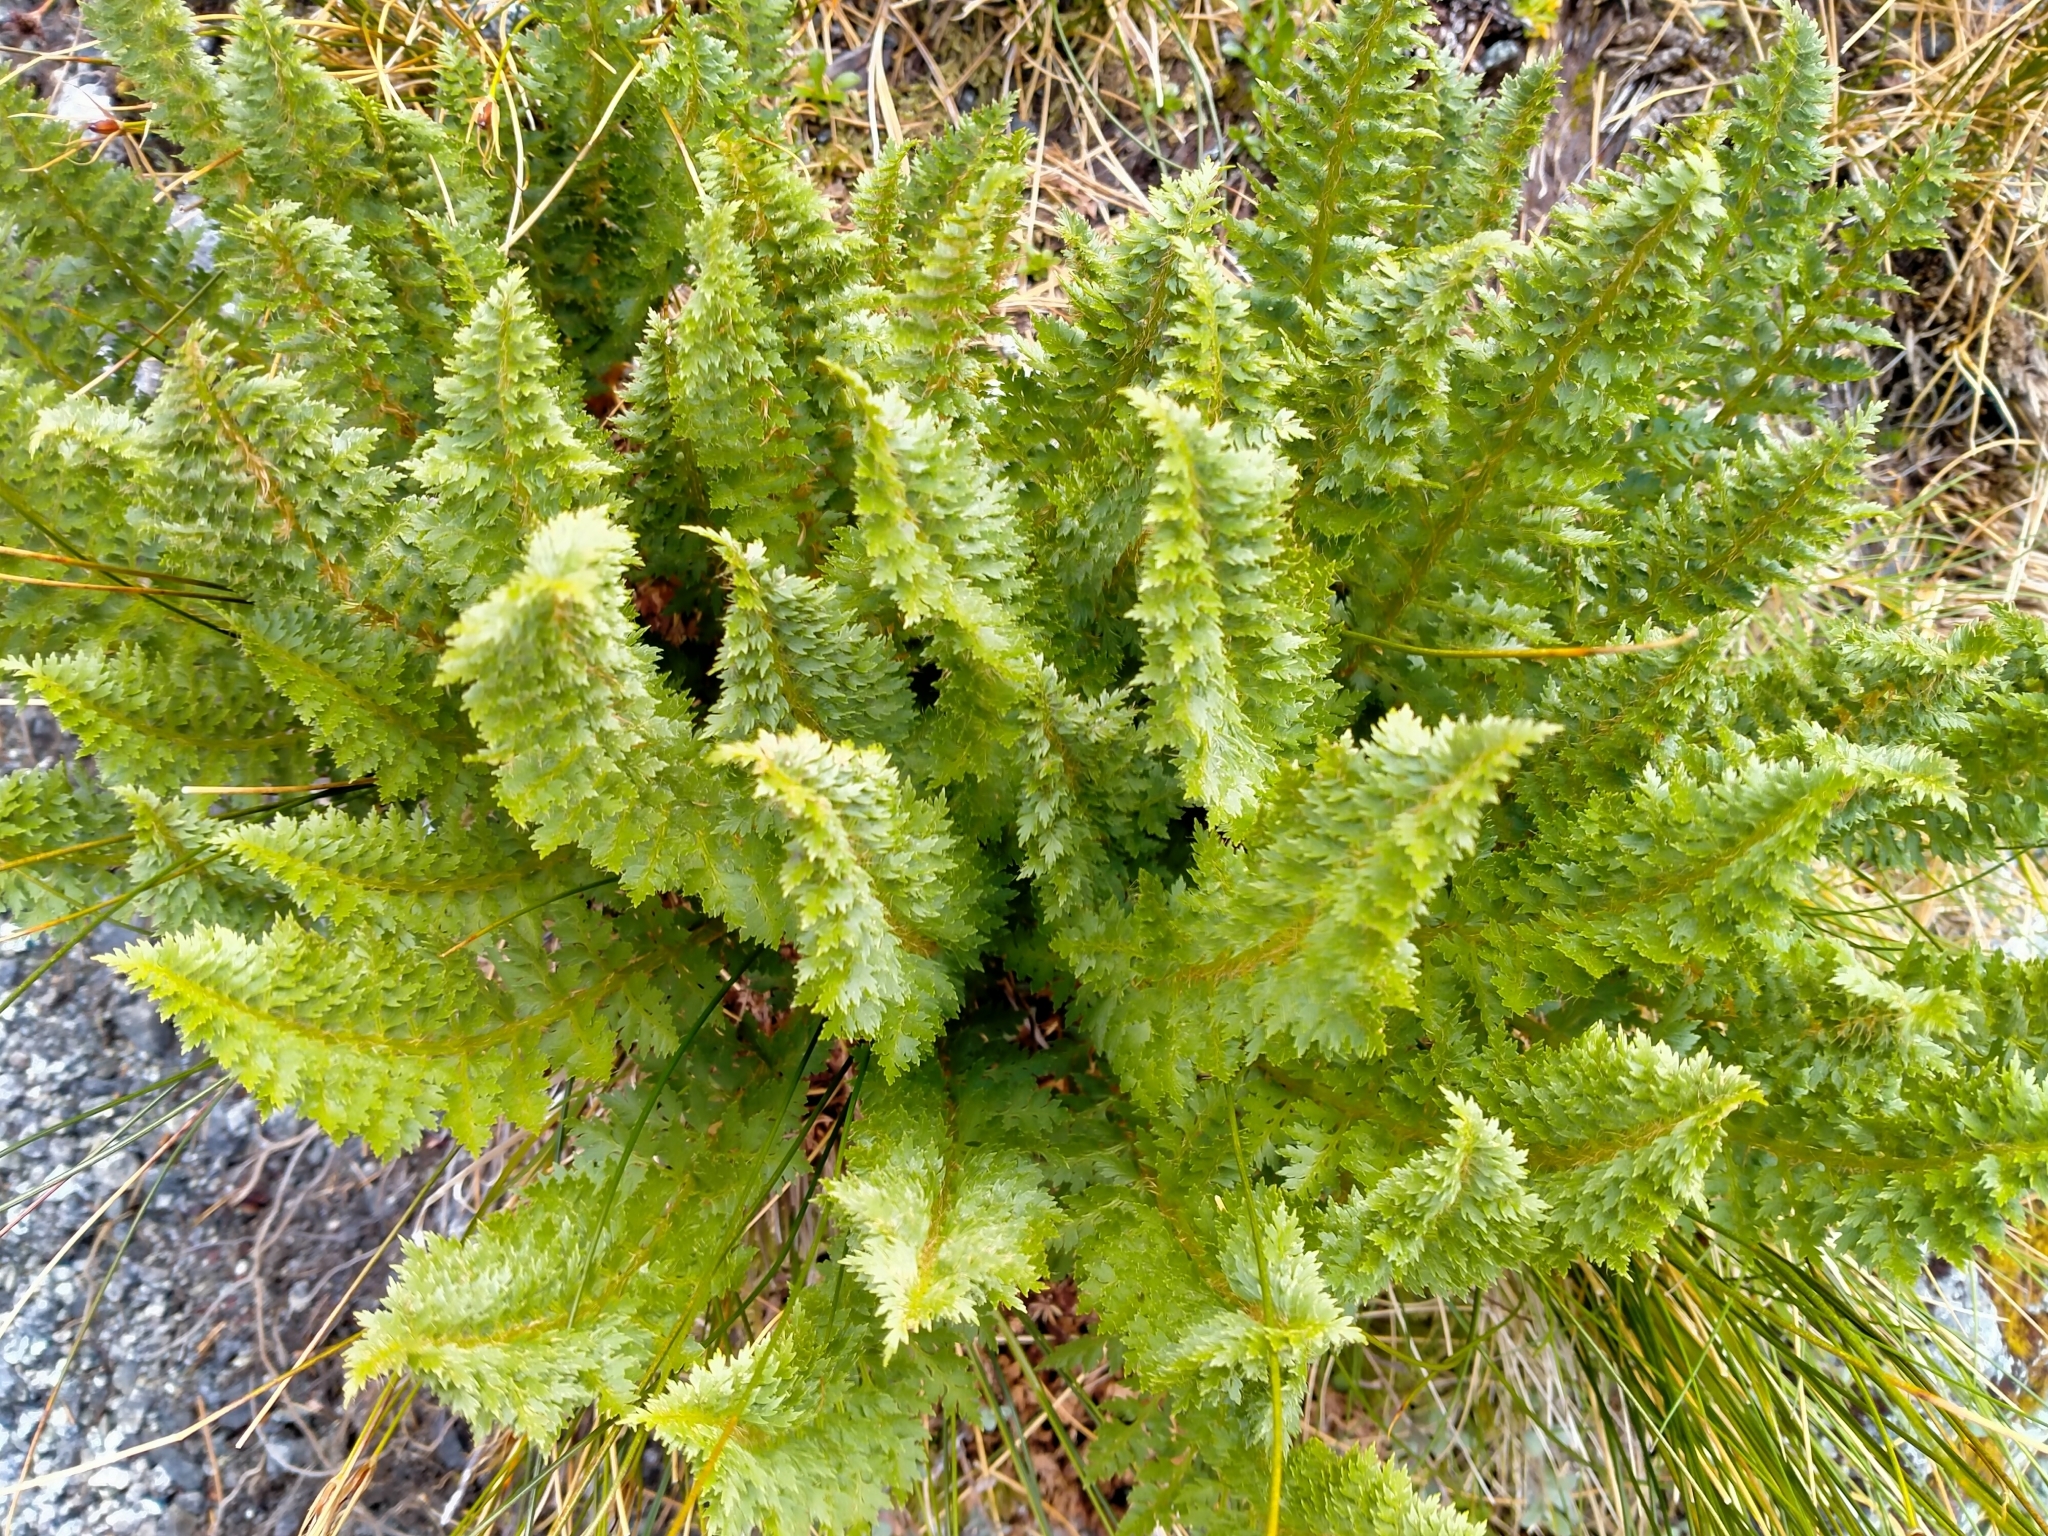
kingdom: Plantae
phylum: Tracheophyta
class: Polypodiopsida
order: Polypodiales
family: Dryopteridaceae
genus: Polystichum
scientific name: Polystichum cystostegia
